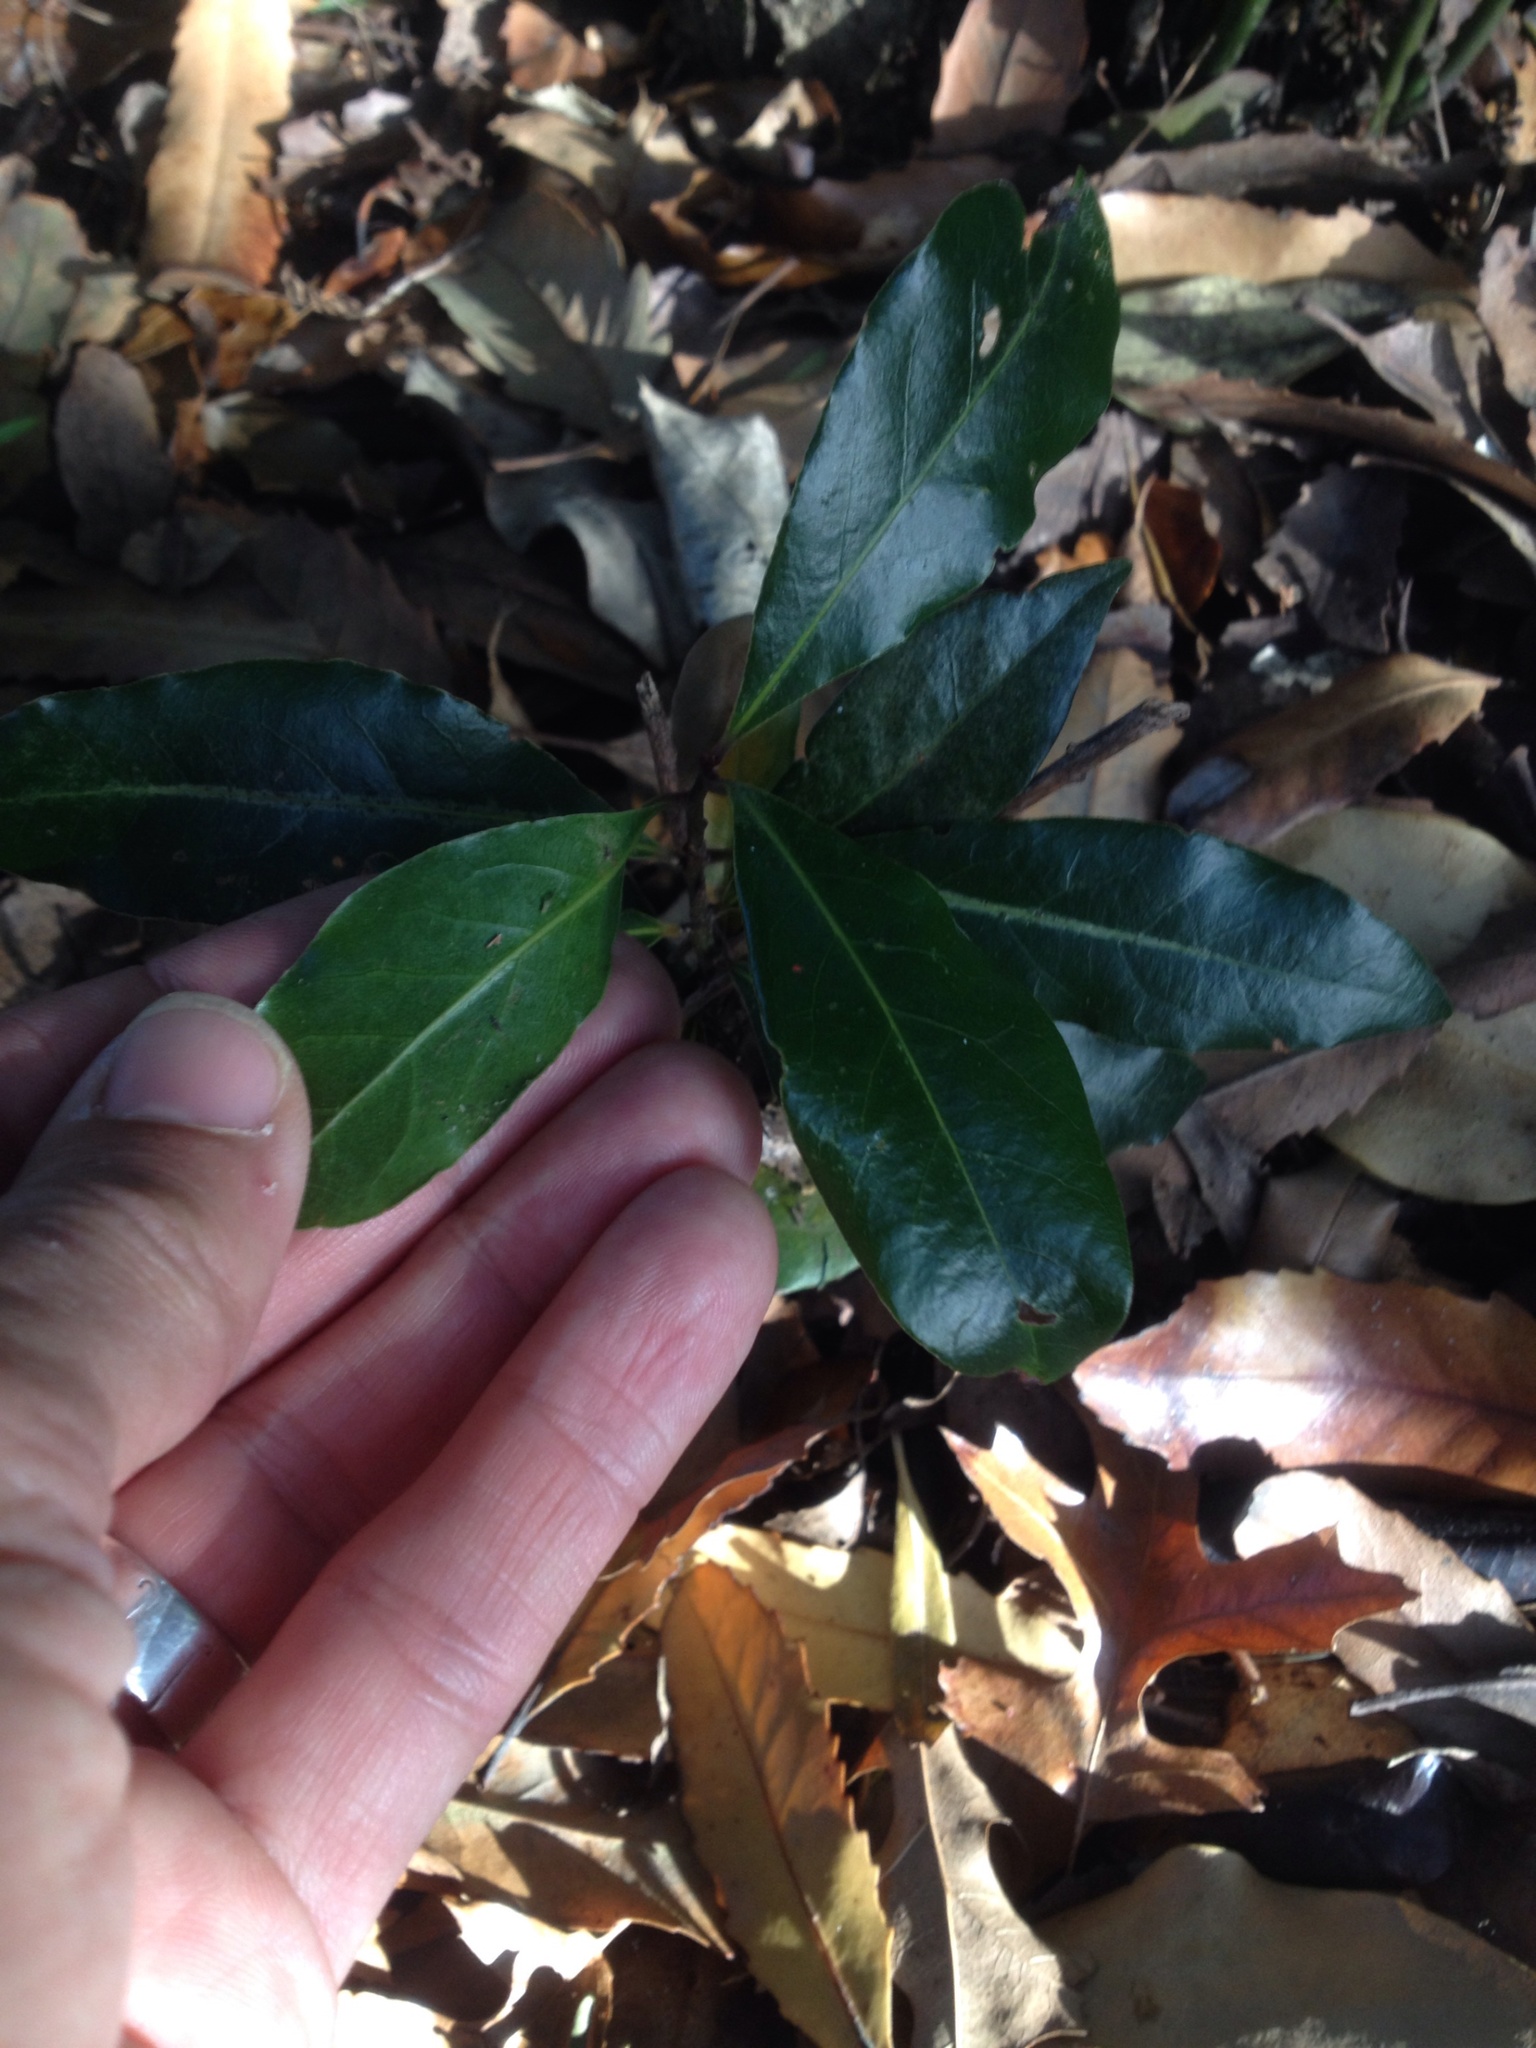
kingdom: Plantae
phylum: Tracheophyta
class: Magnoliopsida
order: Laurales
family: Lauraceae
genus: Laurus
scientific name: Laurus nobilis
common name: Bay
